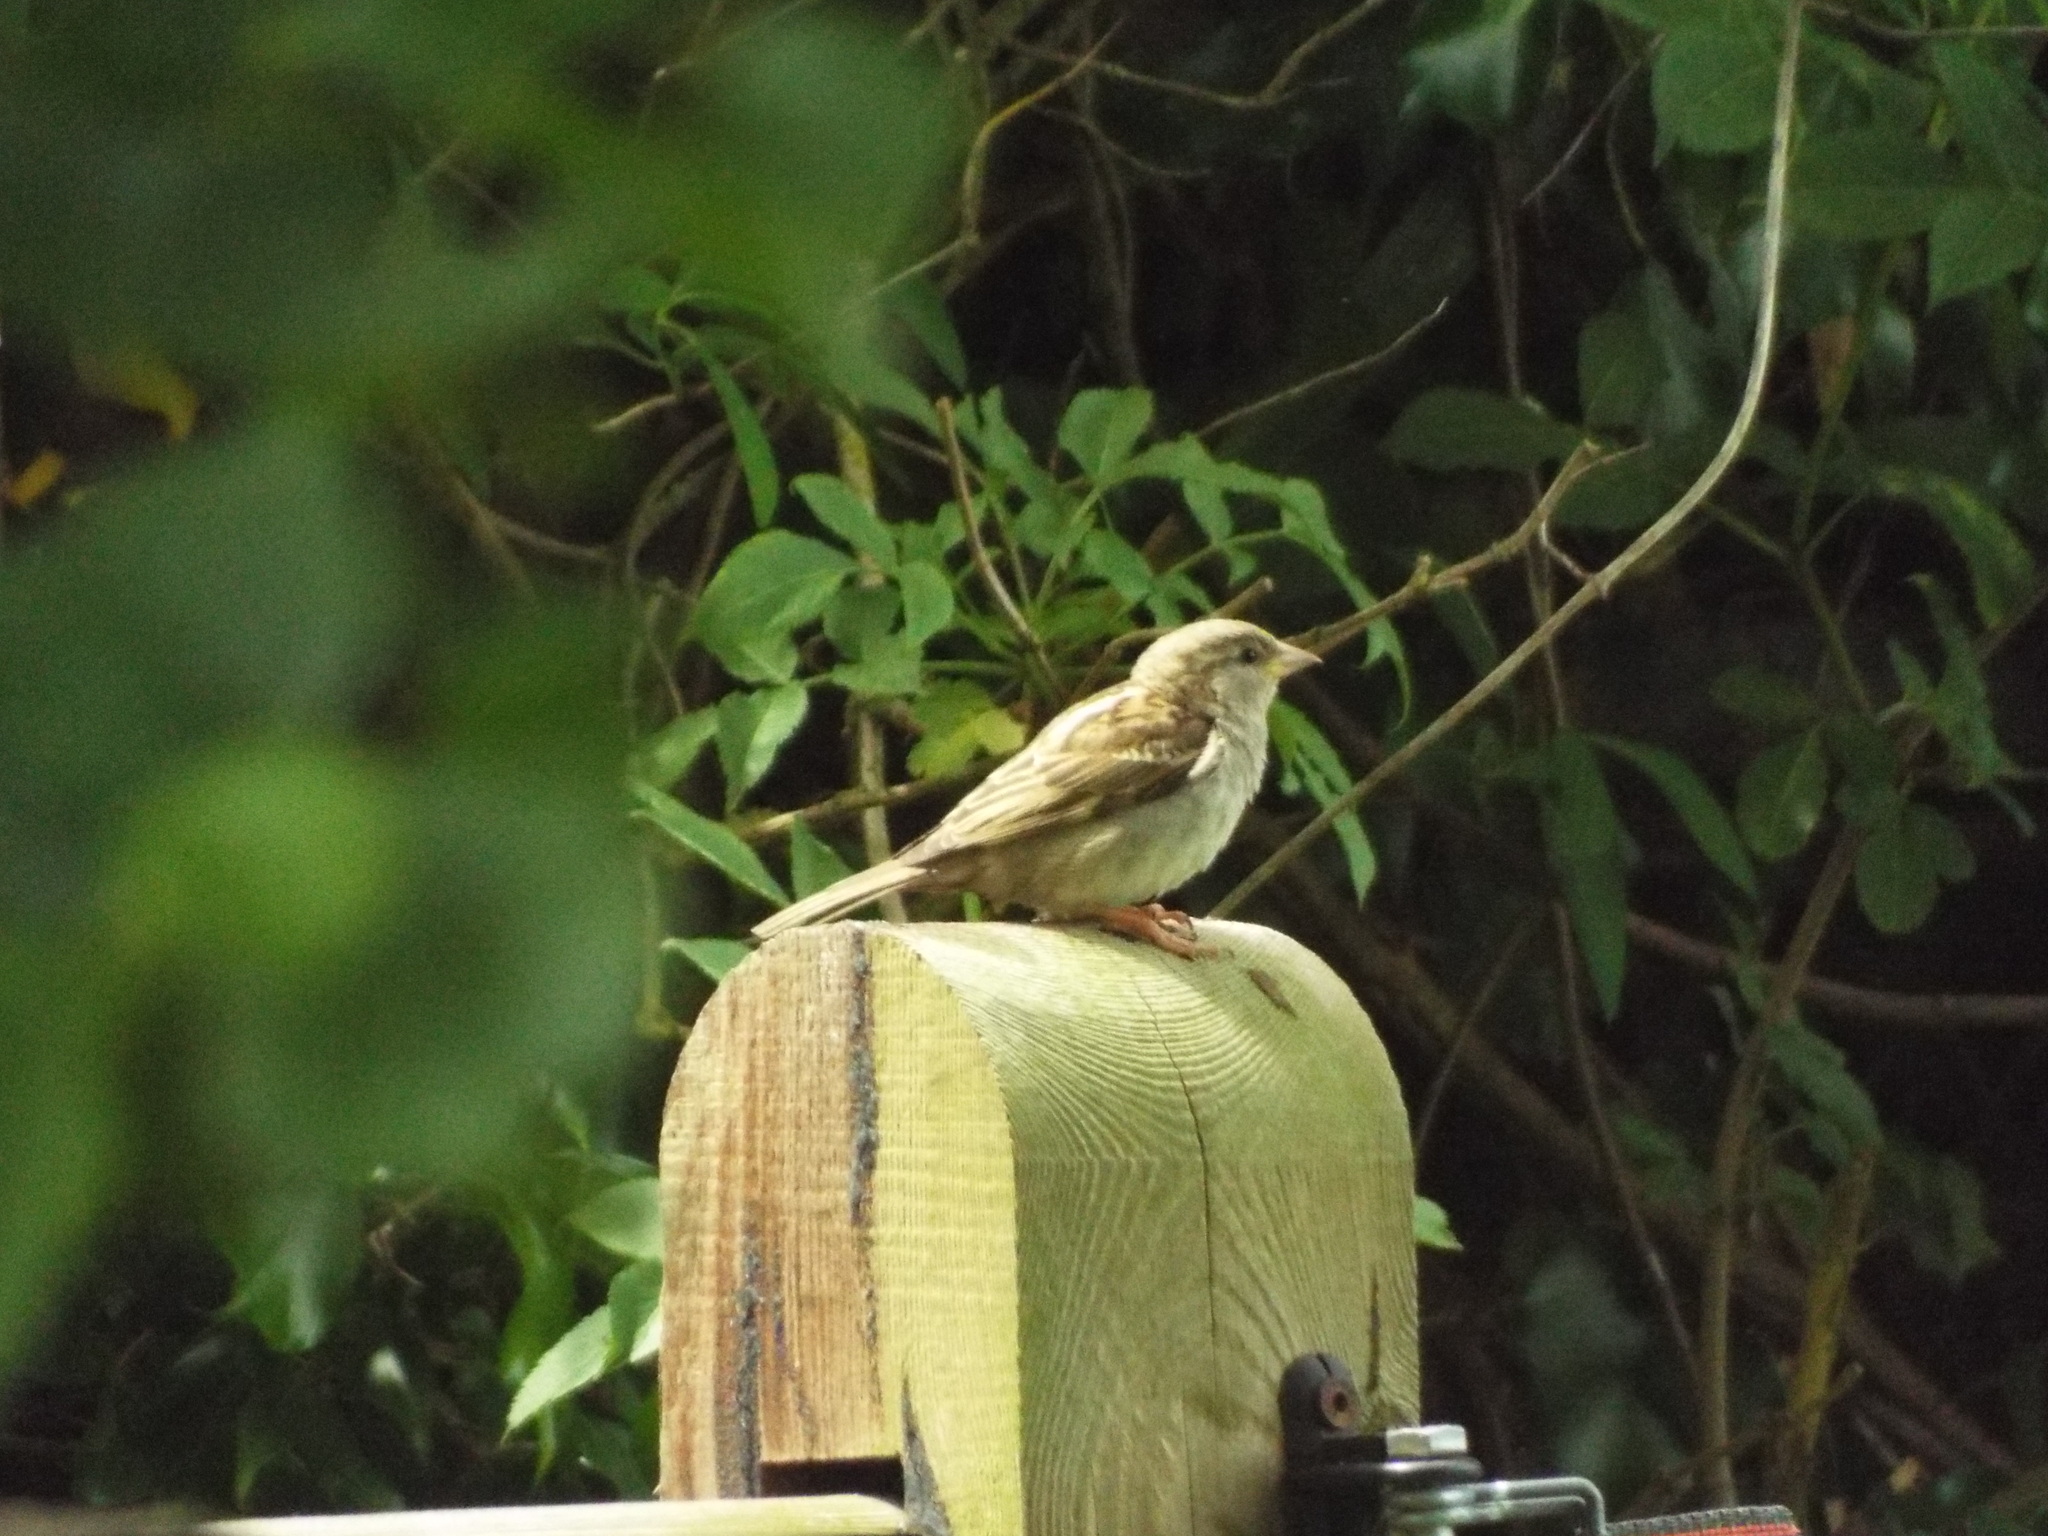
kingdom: Animalia
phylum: Chordata
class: Aves
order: Passeriformes
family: Passeridae
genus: Passer
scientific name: Passer domesticus
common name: House sparrow
